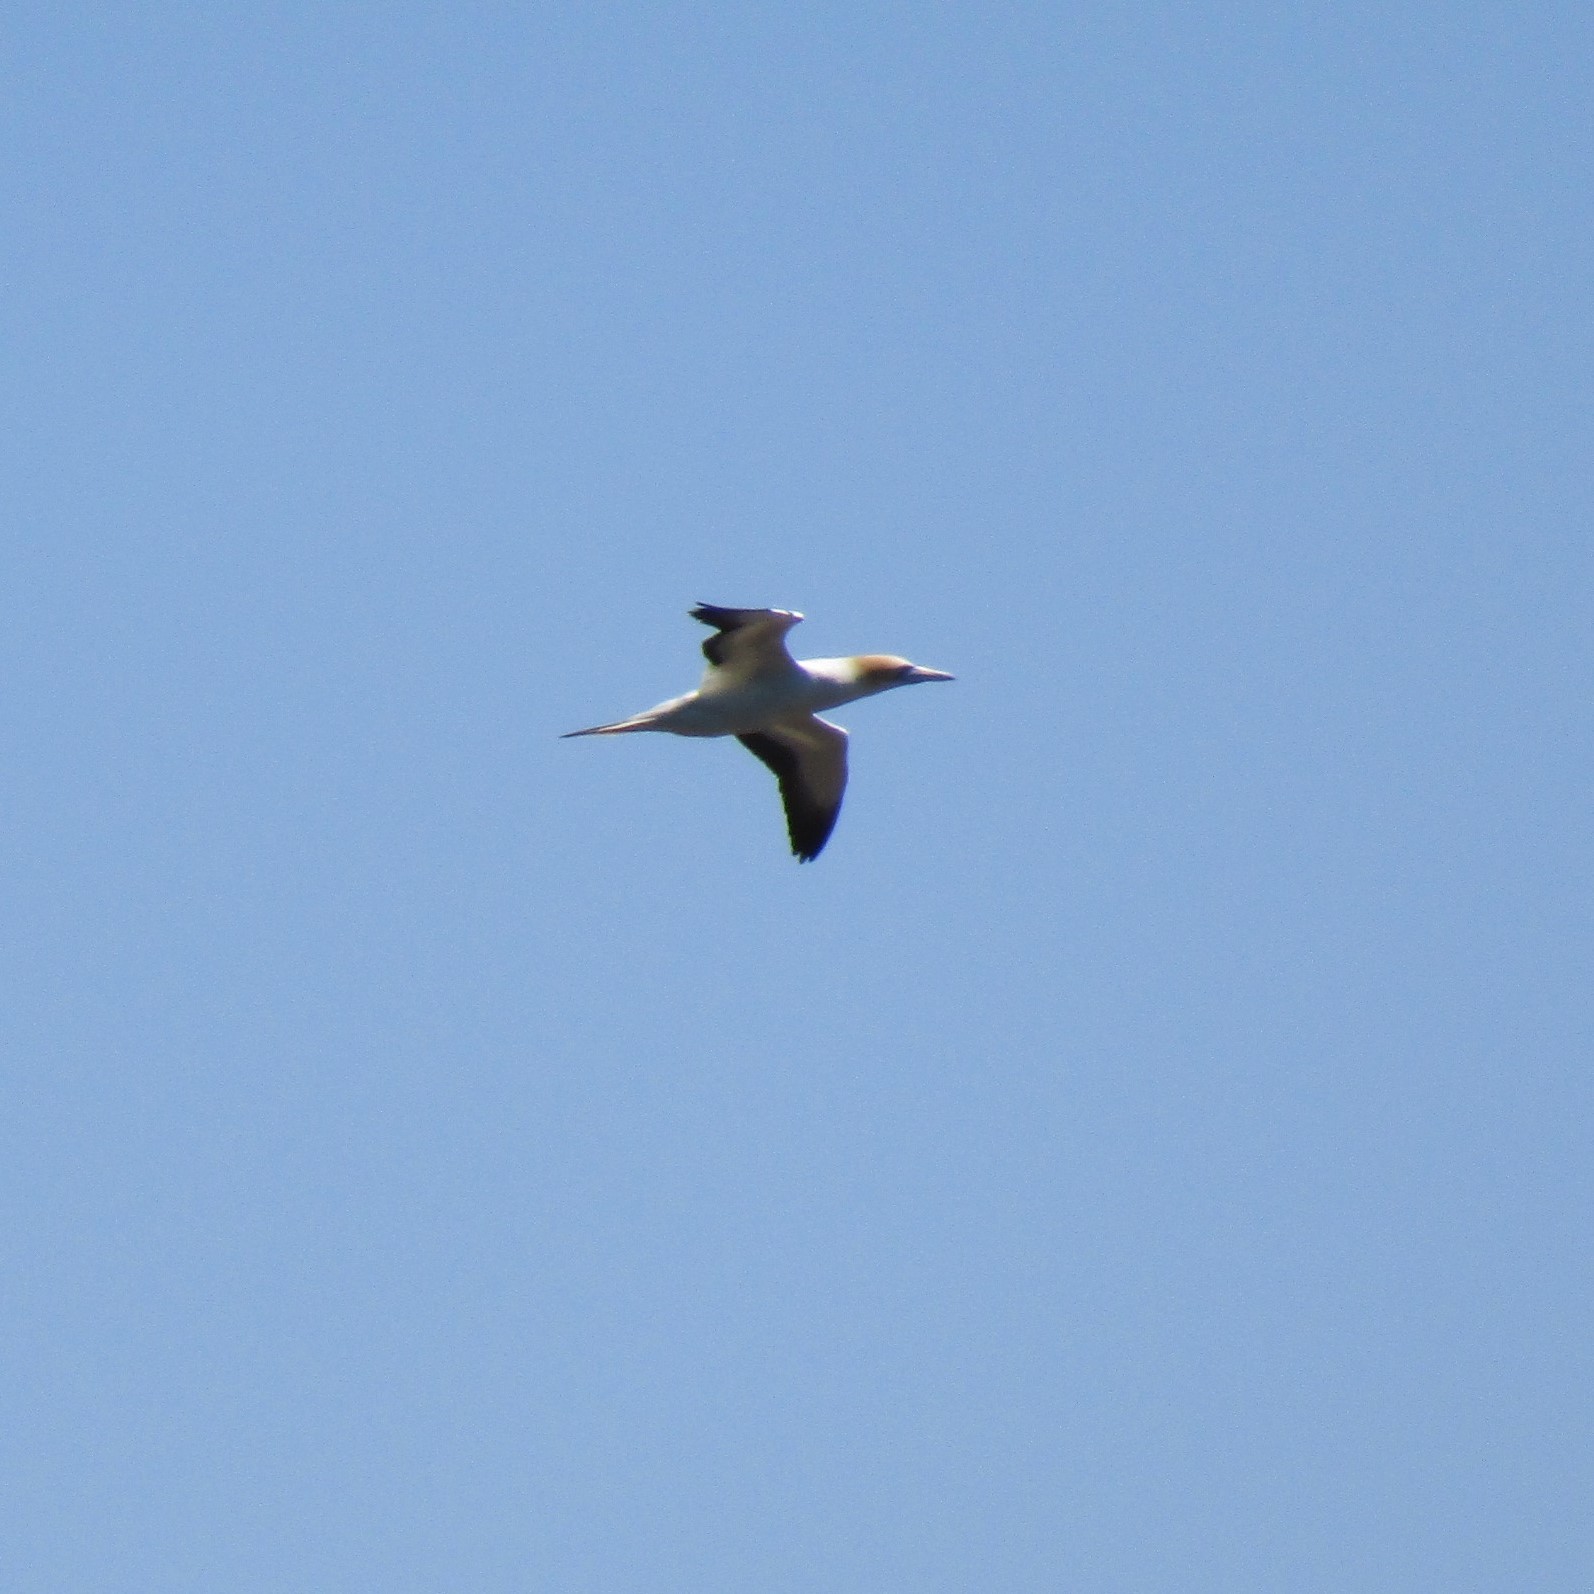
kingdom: Animalia
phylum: Chordata
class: Aves
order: Suliformes
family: Sulidae
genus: Morus
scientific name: Morus serrator
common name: Australasian gannet
